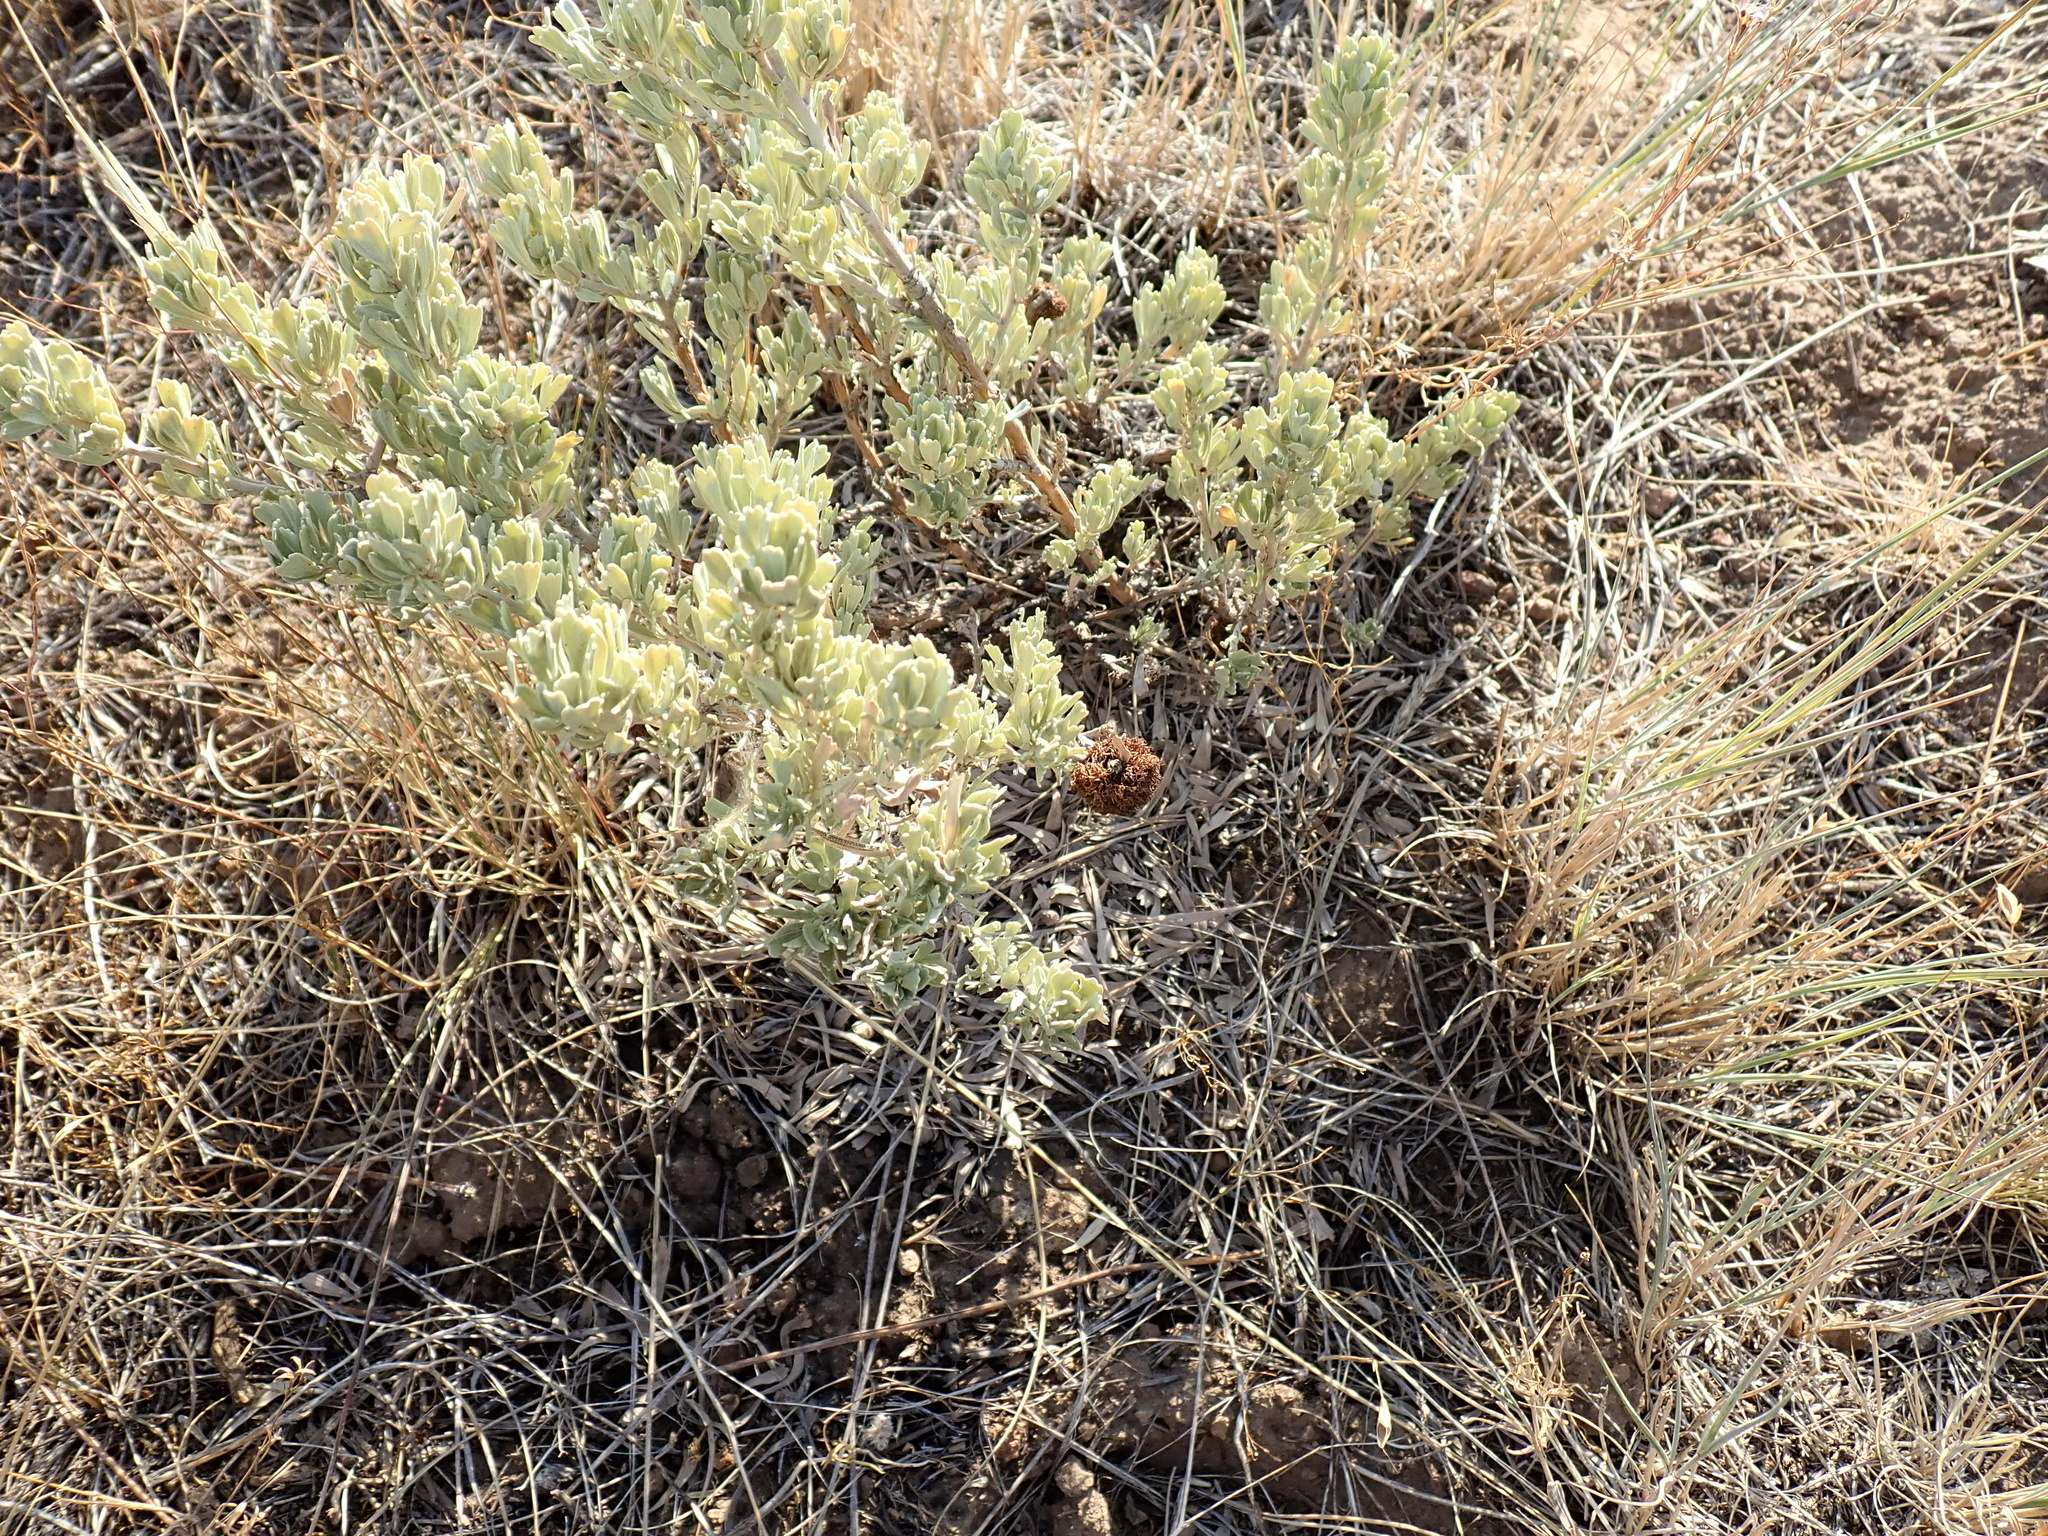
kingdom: Plantae
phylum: Tracheophyta
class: Magnoliopsida
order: Asterales
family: Asteraceae
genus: Artemisia
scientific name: Artemisia tridentata
